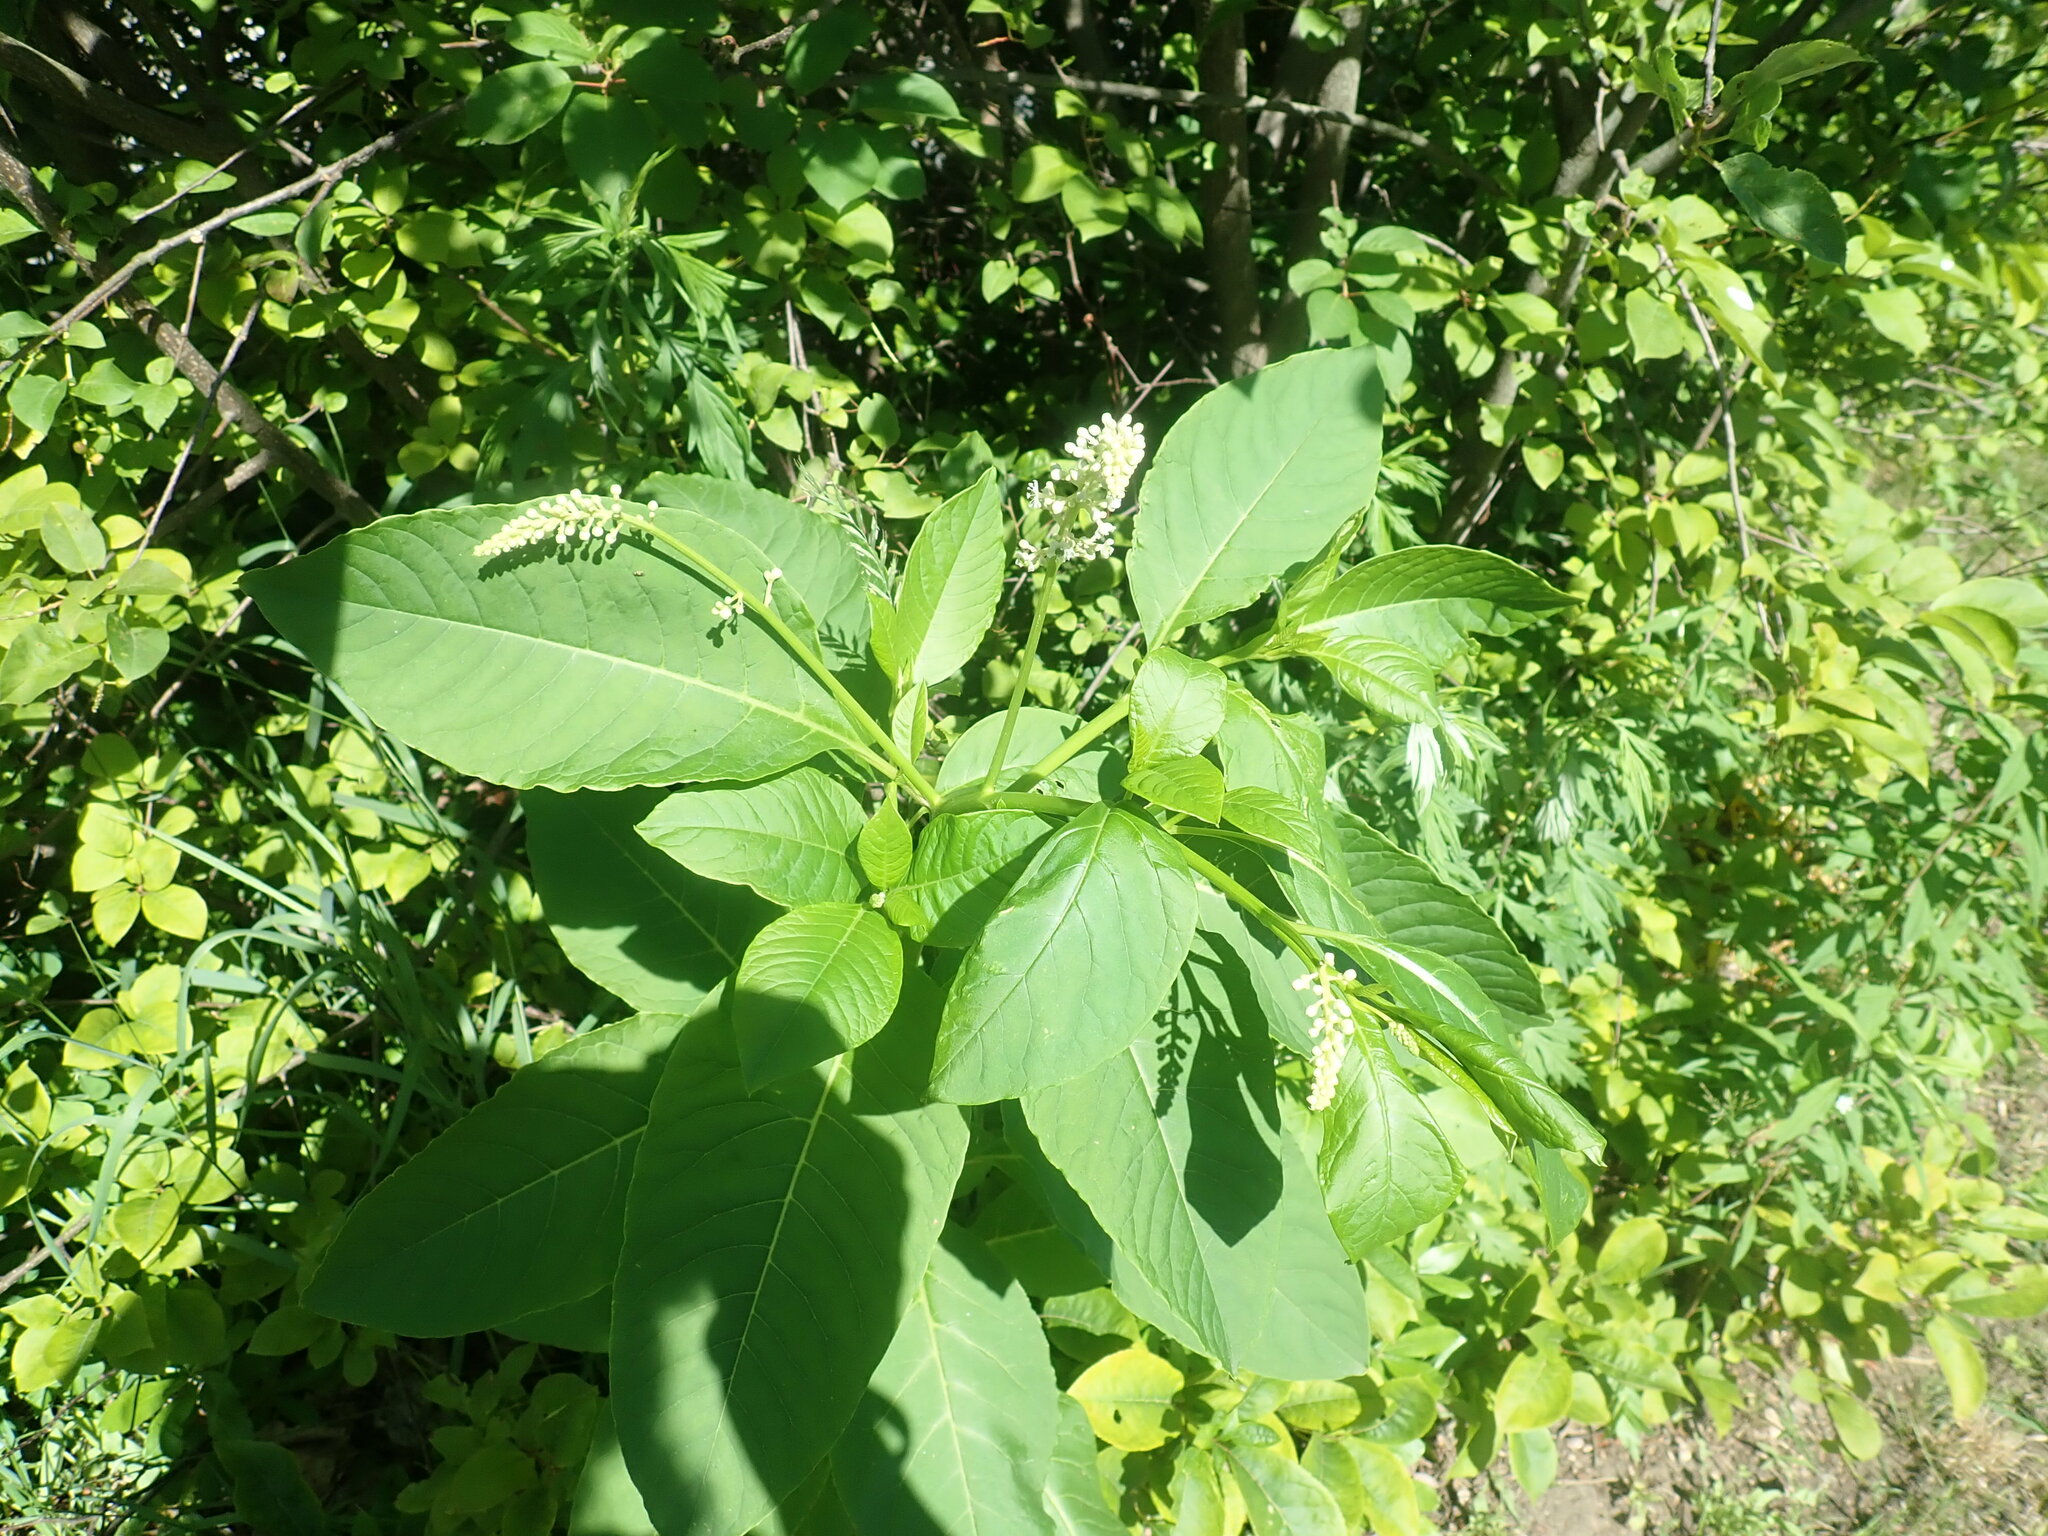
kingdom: Plantae
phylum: Tracheophyta
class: Magnoliopsida
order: Caryophyllales
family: Phytolaccaceae
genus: Phytolacca
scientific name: Phytolacca americana
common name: American pokeweed
